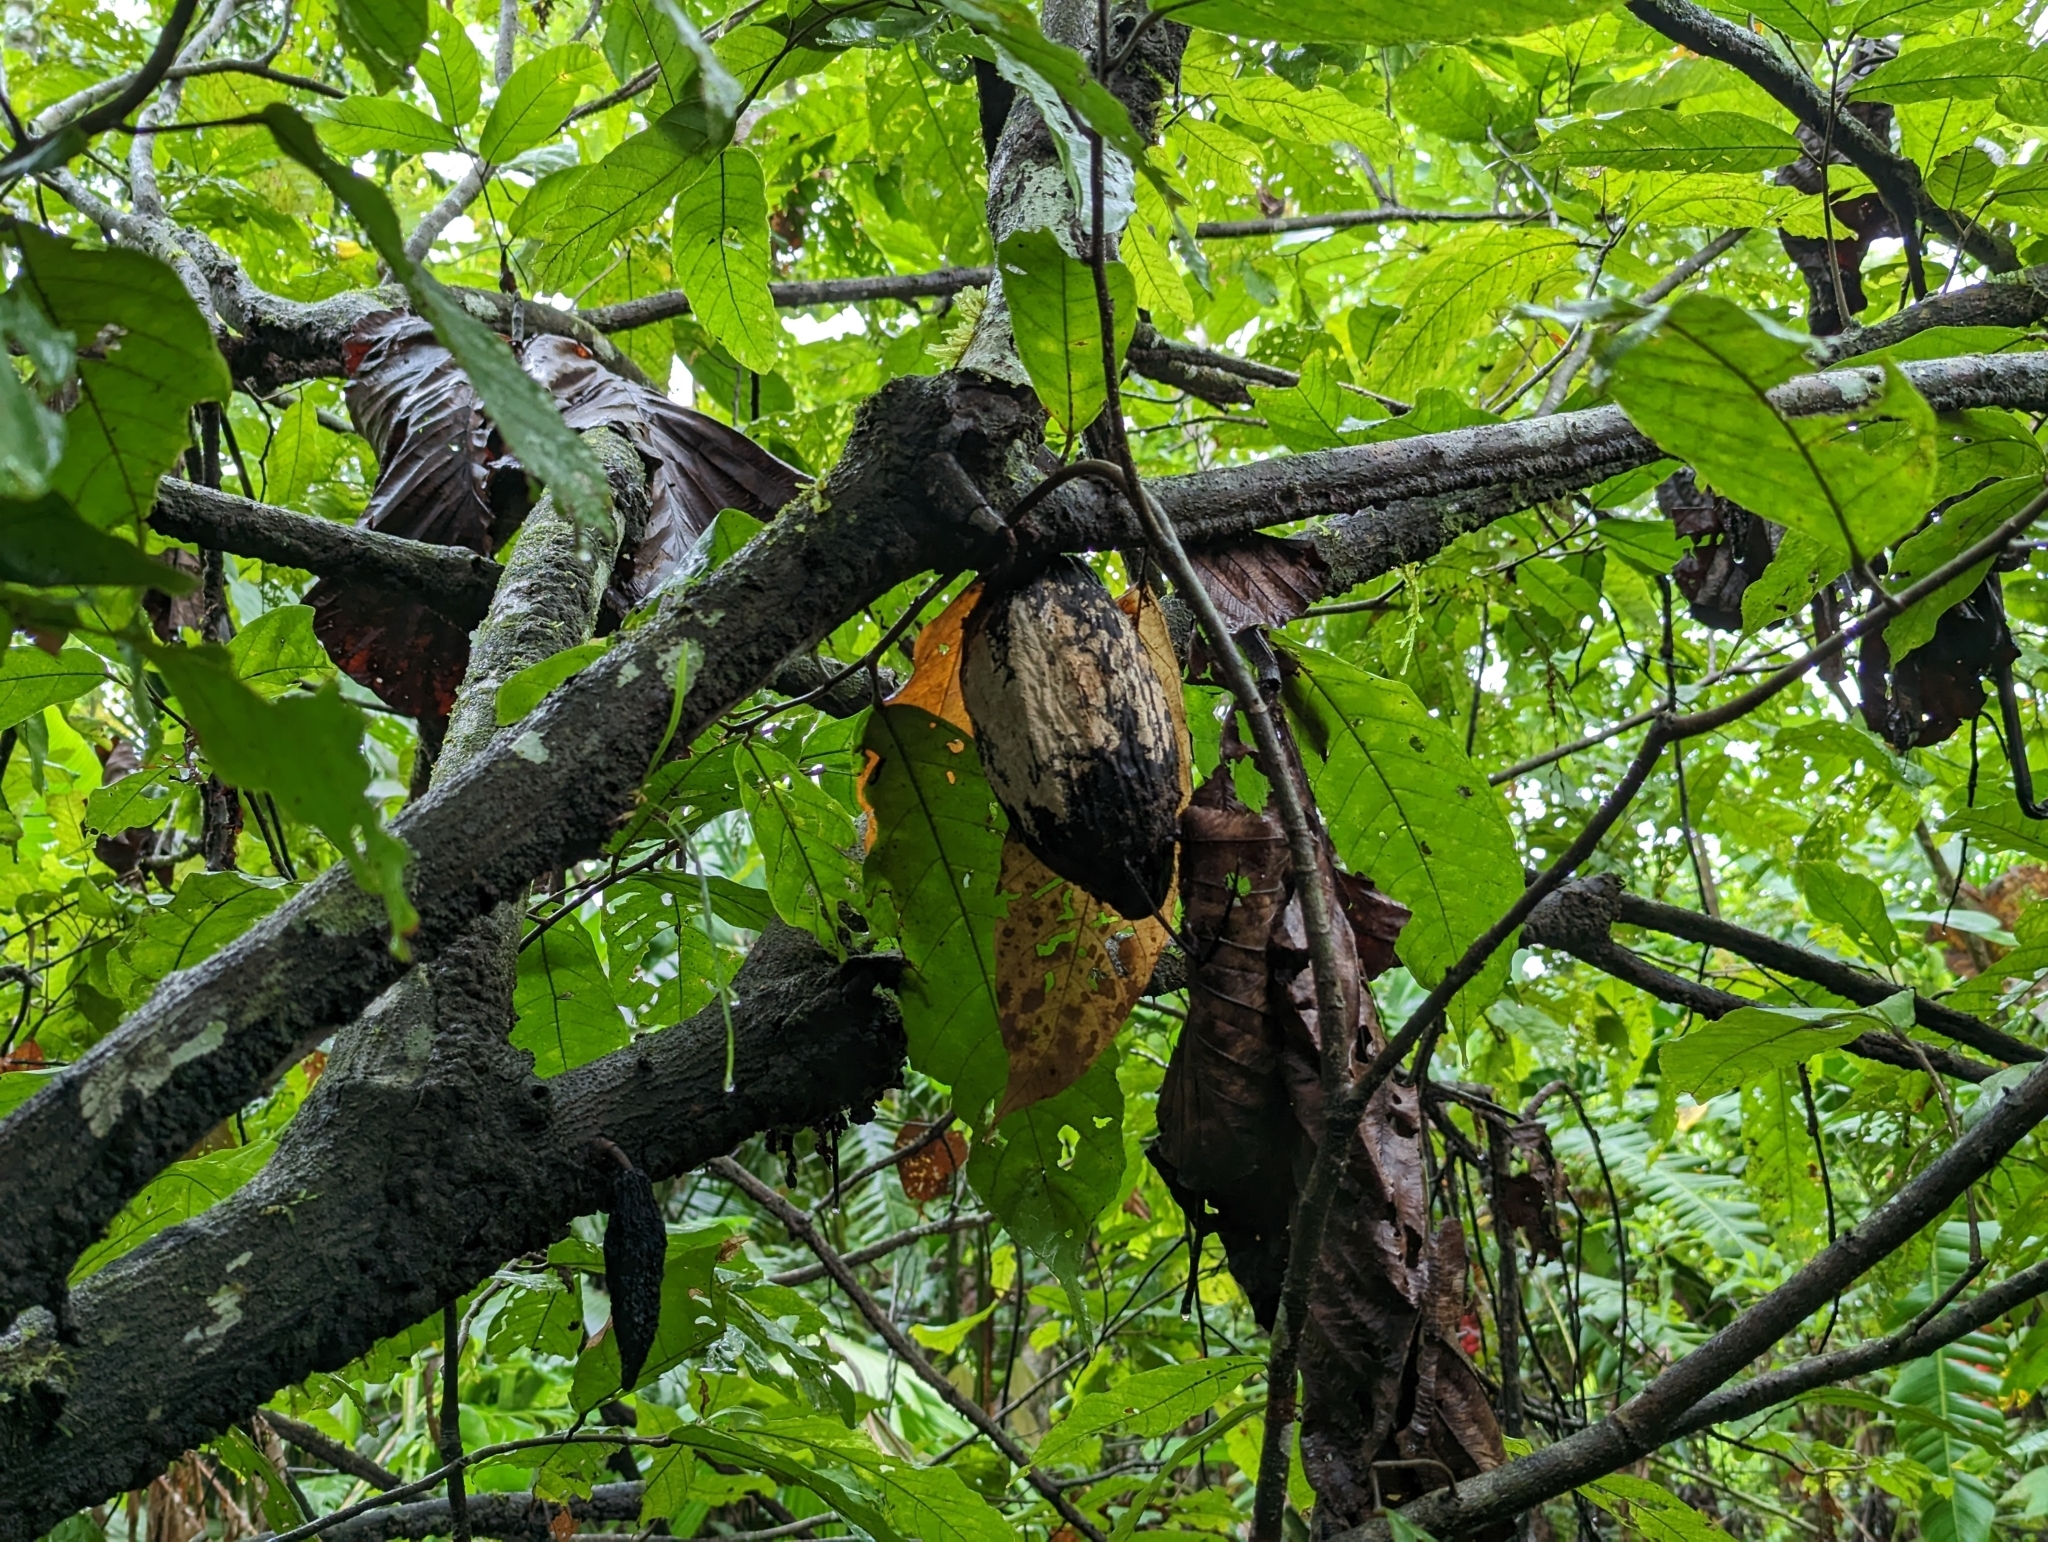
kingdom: Plantae
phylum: Tracheophyta
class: Magnoliopsida
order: Malvales
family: Malvaceae
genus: Theobroma
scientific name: Theobroma cacao
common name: Cocoa
